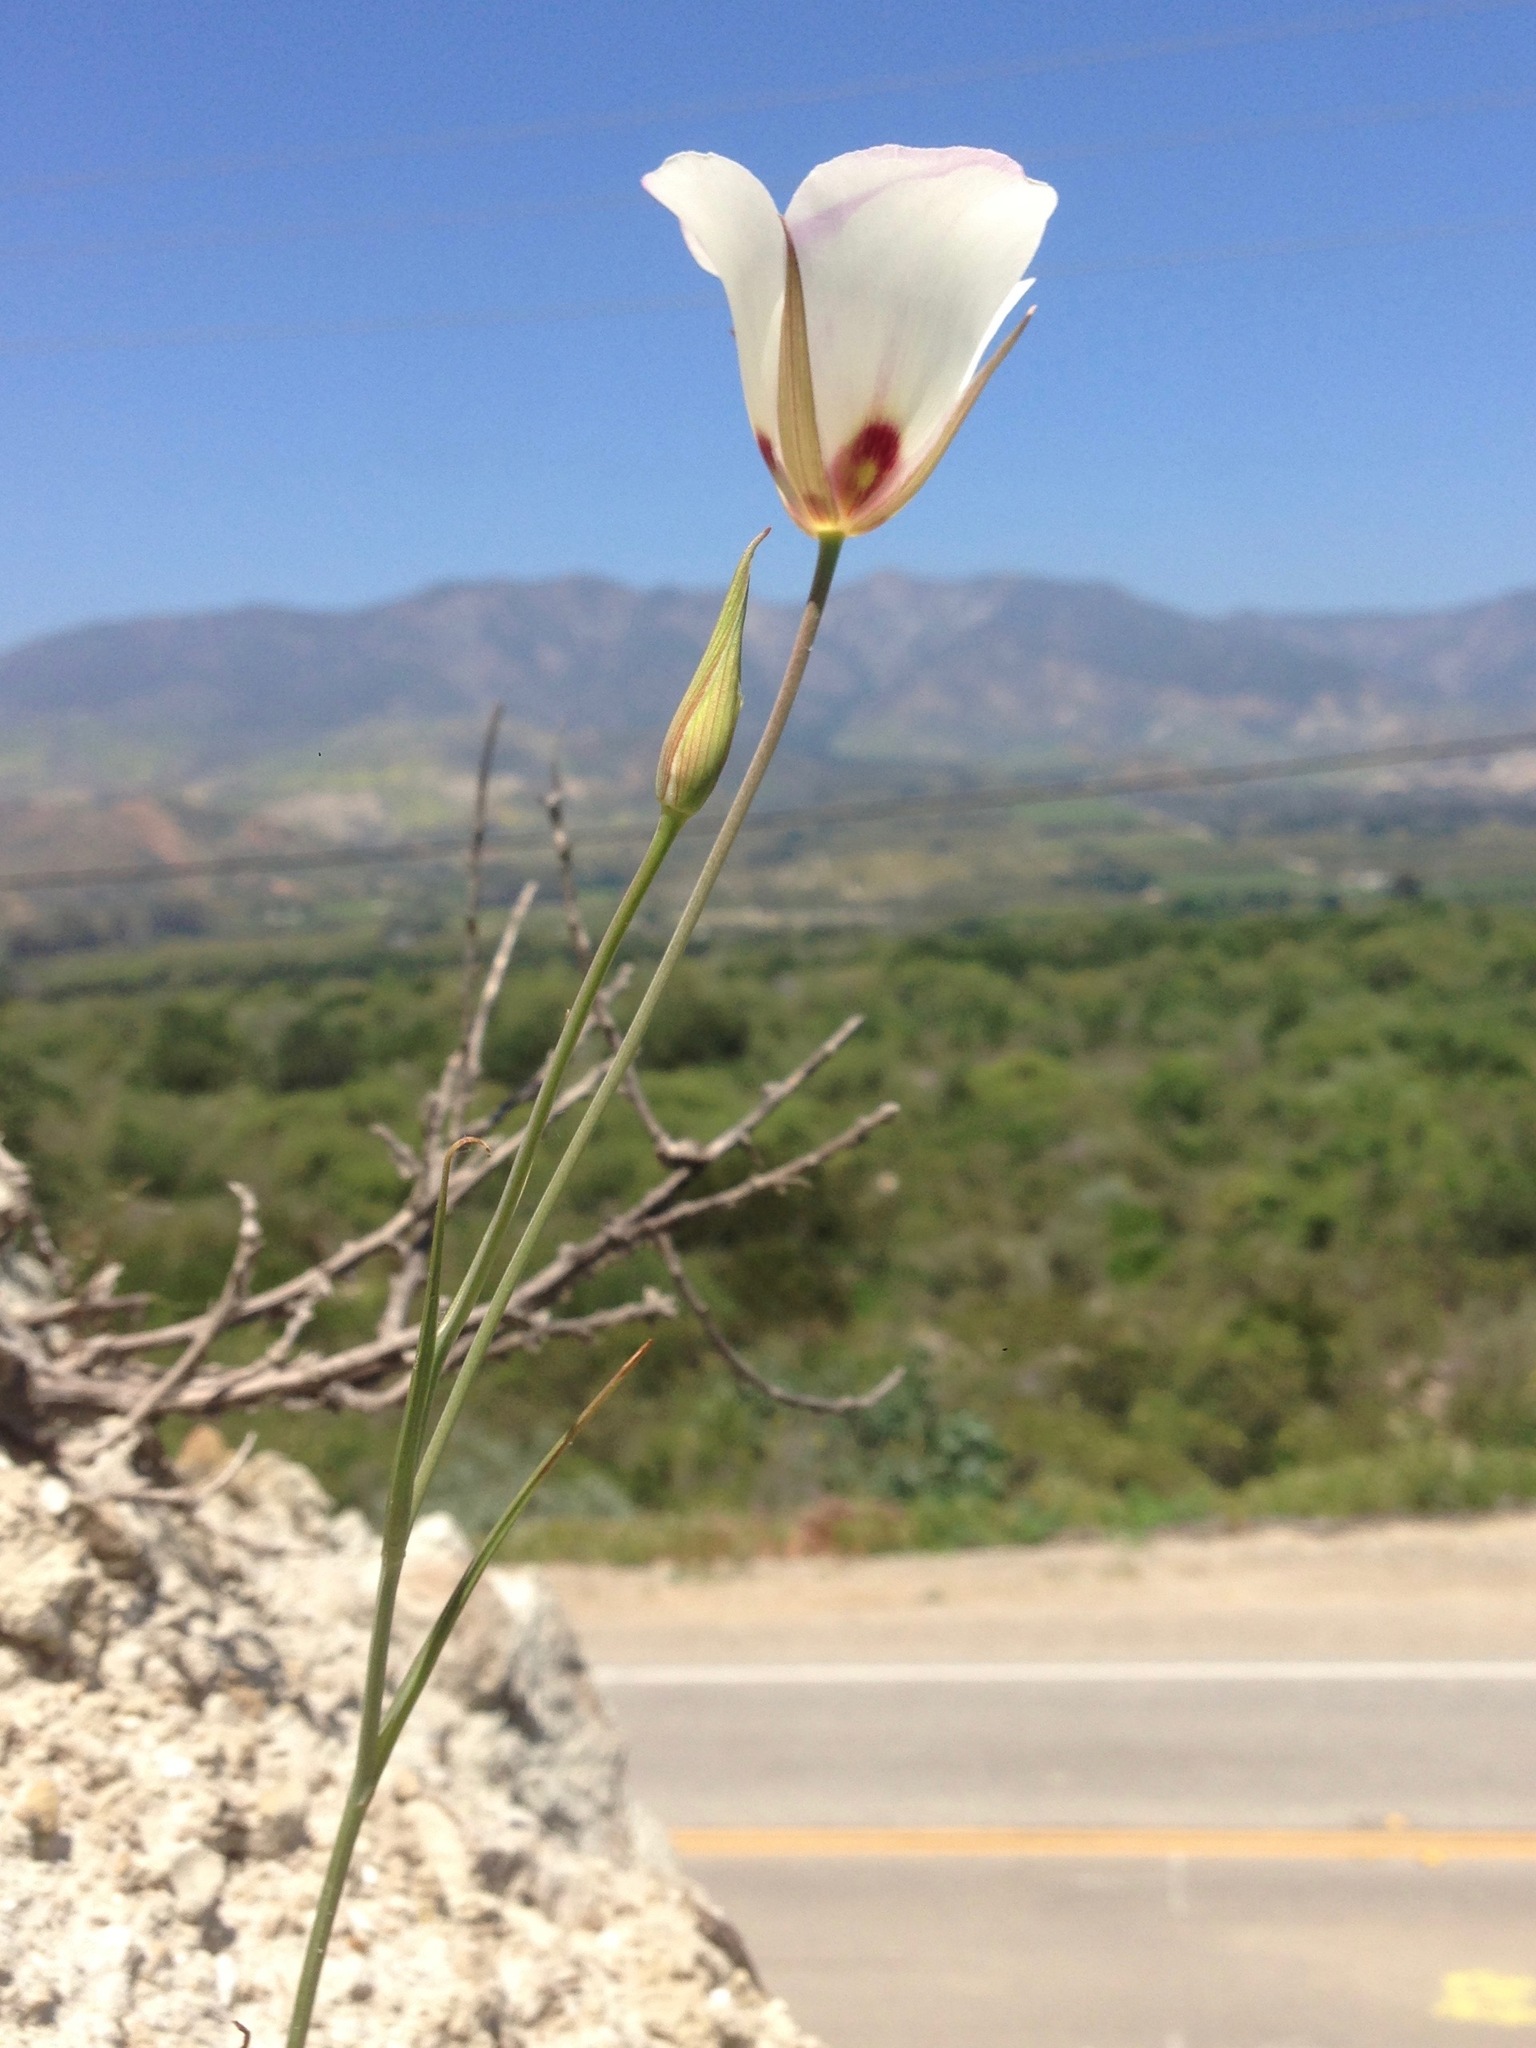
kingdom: Plantae
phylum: Tracheophyta
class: Liliopsida
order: Liliales
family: Liliaceae
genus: Calochortus
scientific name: Calochortus catalinae
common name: Catalina mariposa-lily
